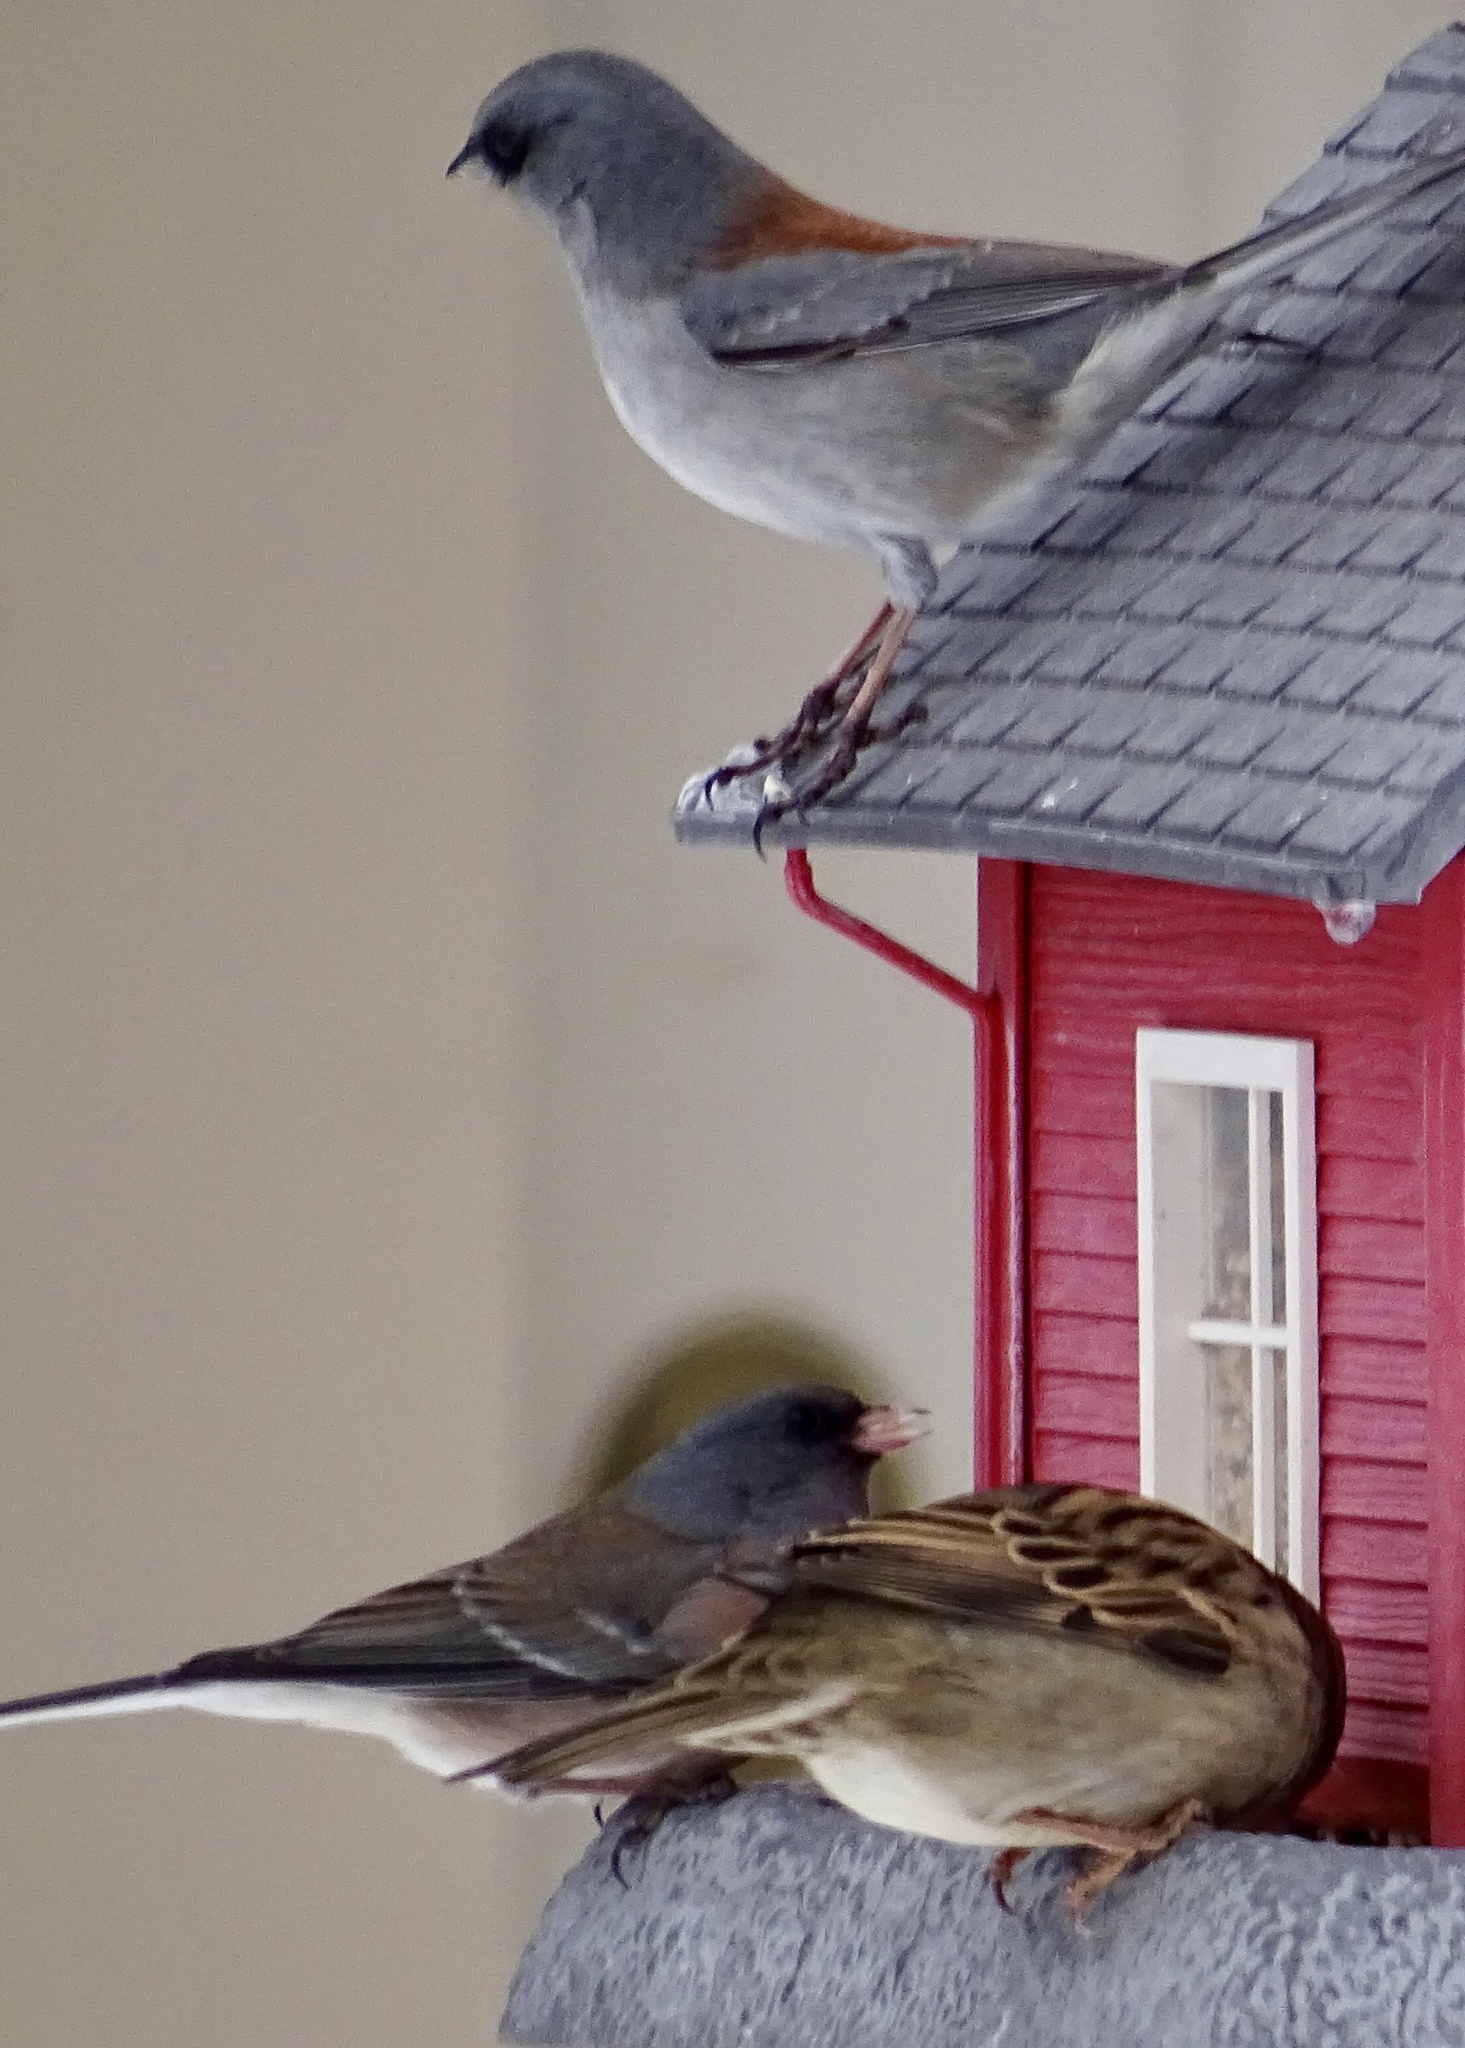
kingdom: Animalia
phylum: Chordata
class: Aves
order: Passeriformes
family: Passerellidae
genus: Junco
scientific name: Junco hyemalis
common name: Dark-eyed junco
